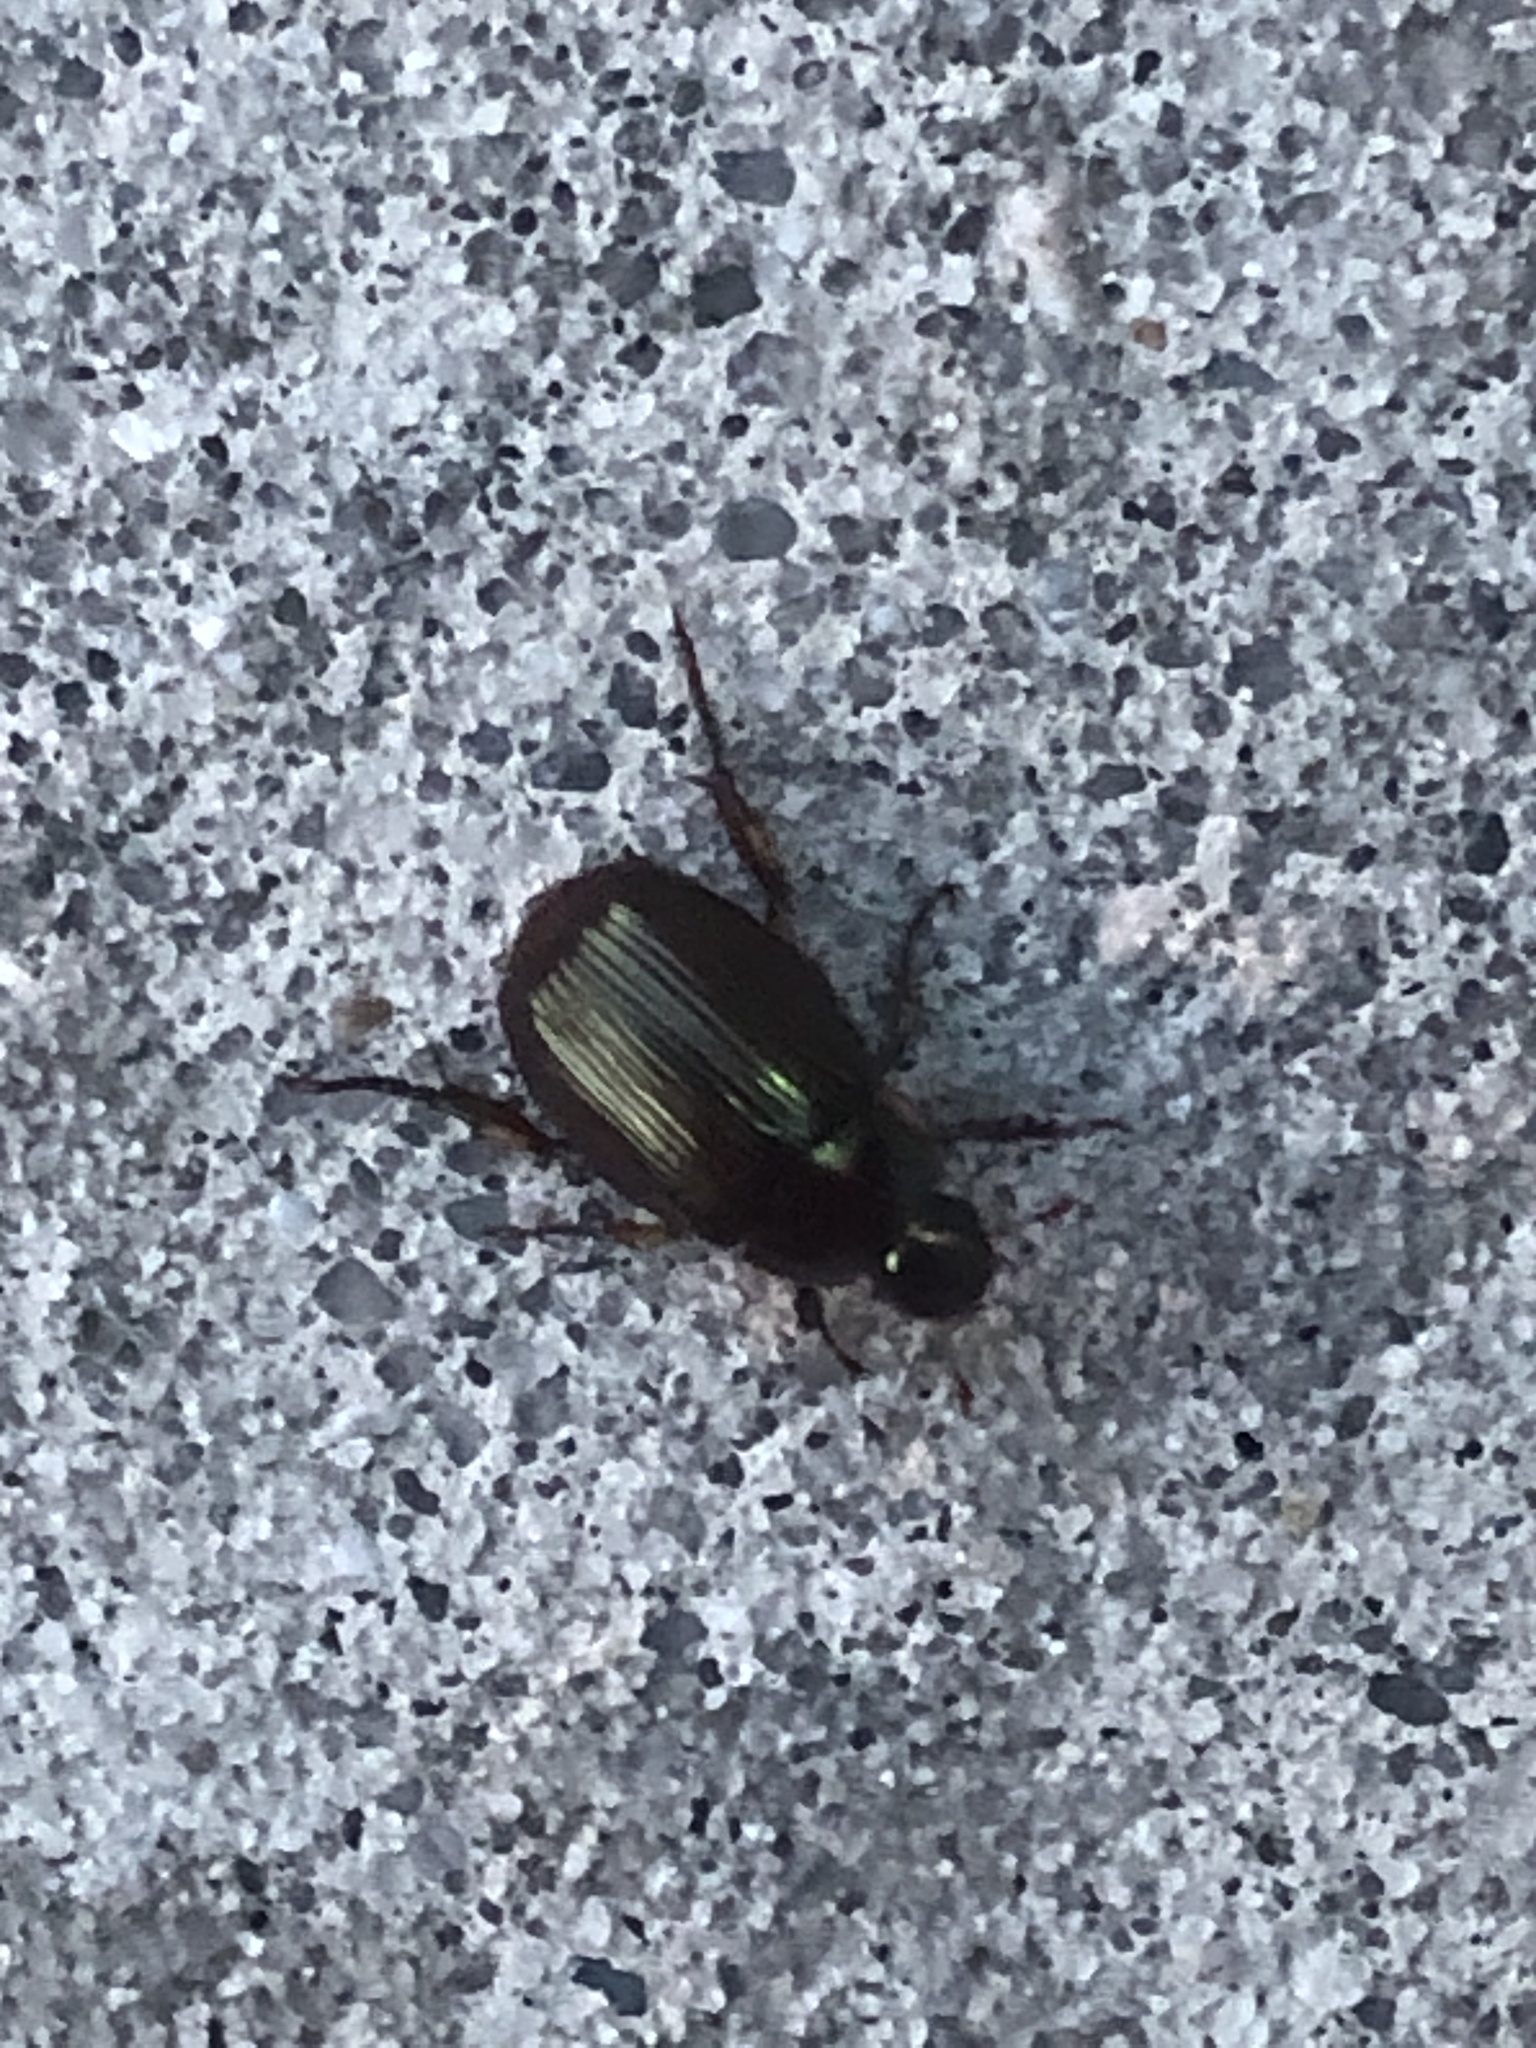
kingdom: Animalia
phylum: Arthropoda
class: Insecta
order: Coleoptera
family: Scarabaeidae
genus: Callistethus
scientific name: Callistethus marginatus
